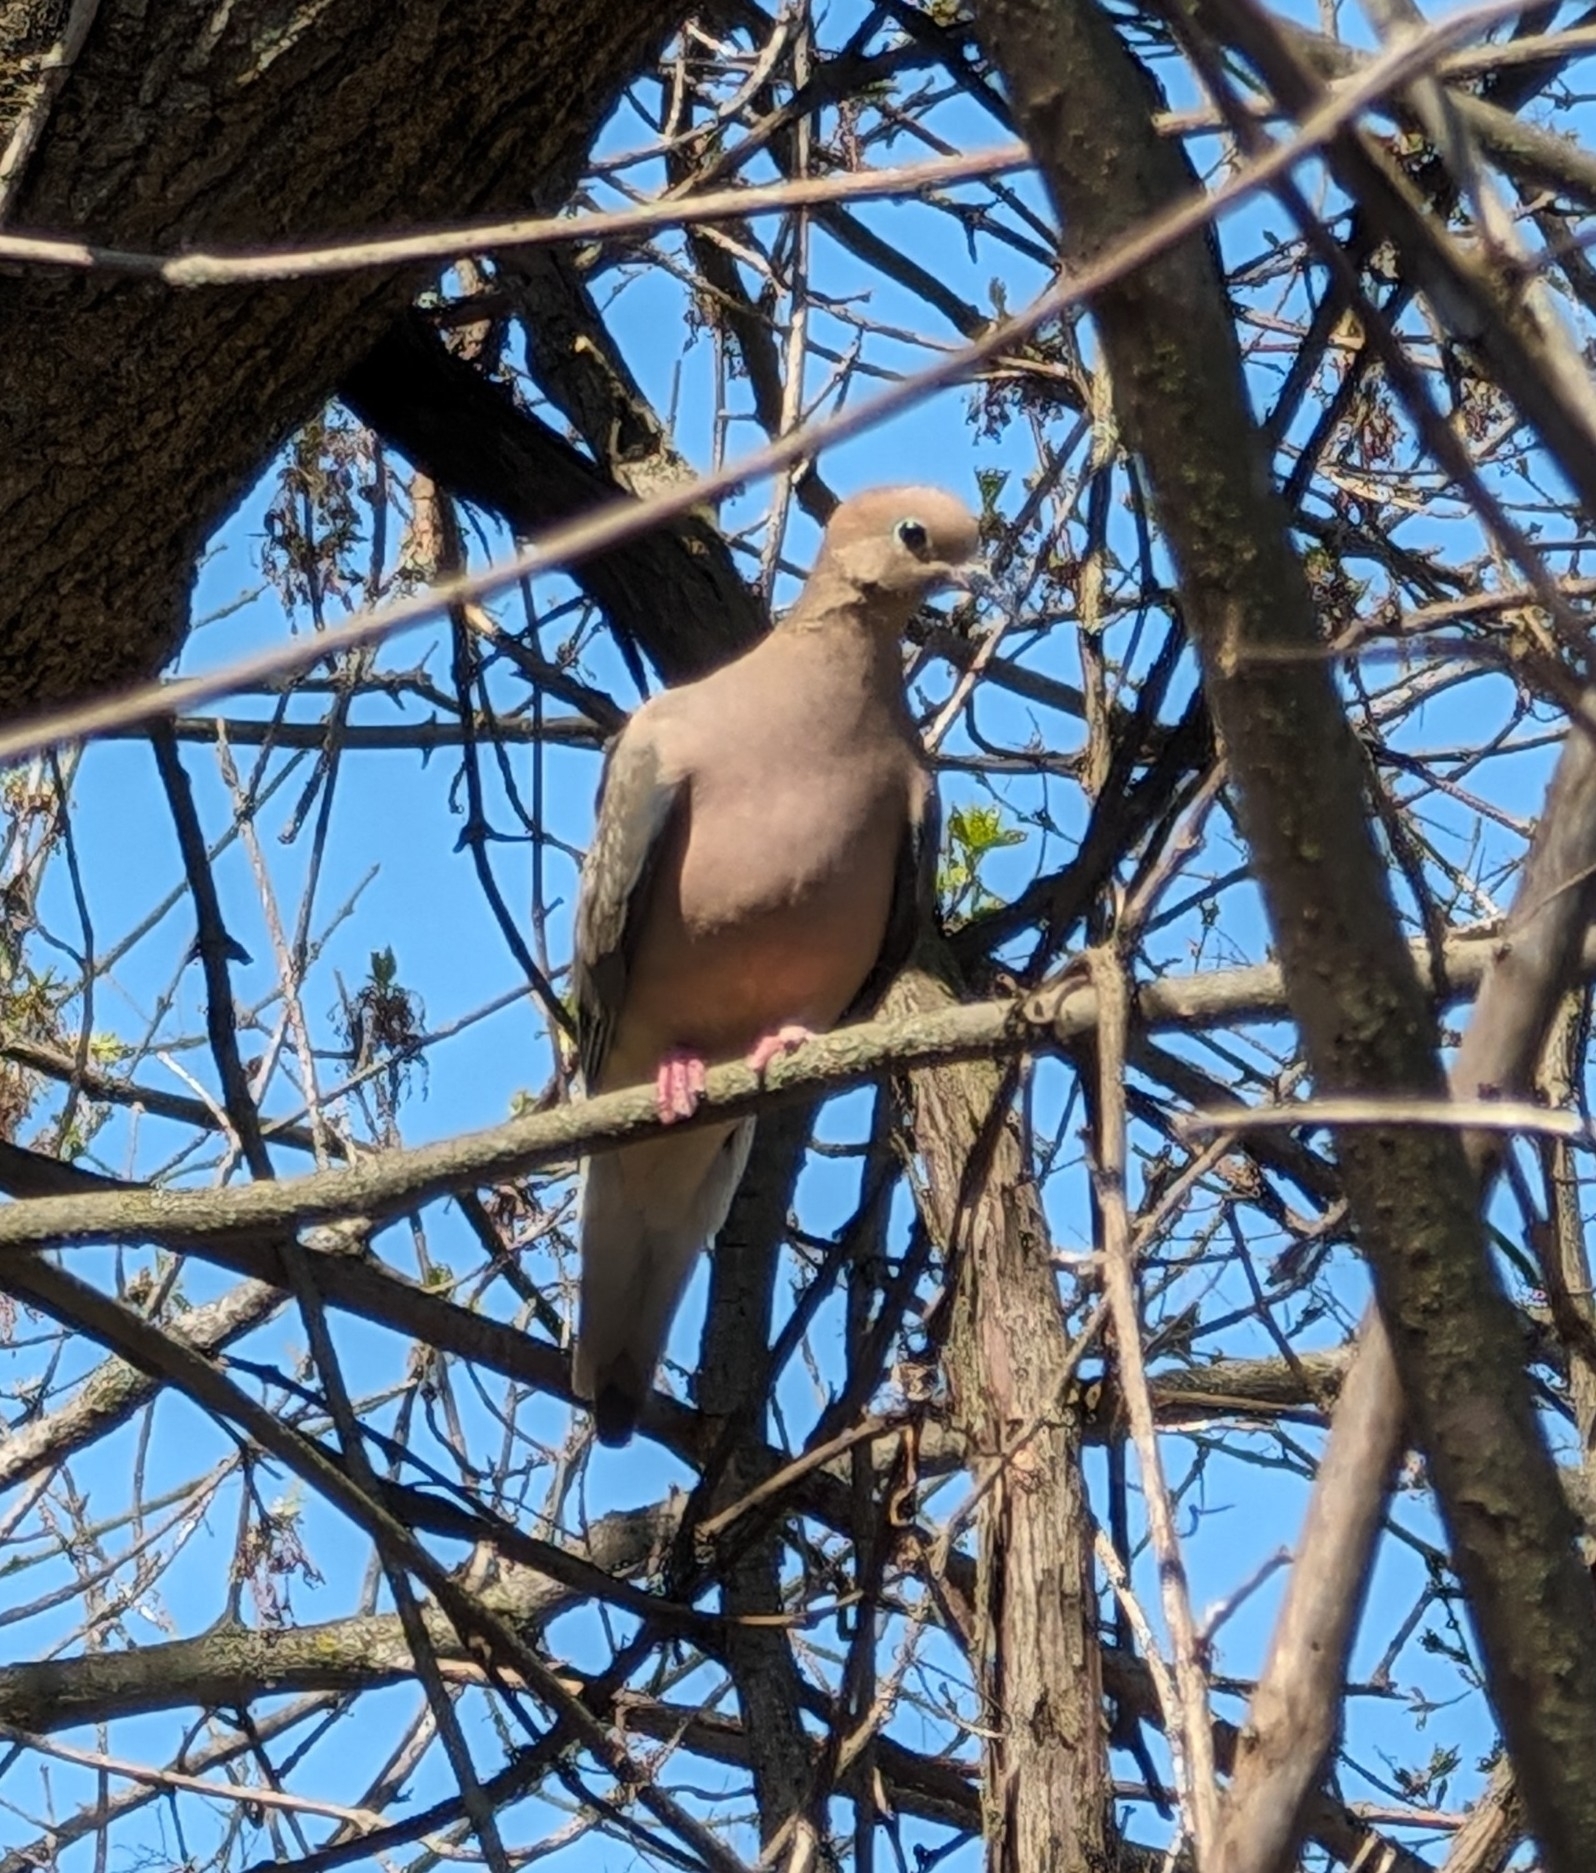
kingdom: Animalia
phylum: Chordata
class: Aves
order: Columbiformes
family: Columbidae
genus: Zenaida
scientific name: Zenaida macroura
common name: Mourning dove
